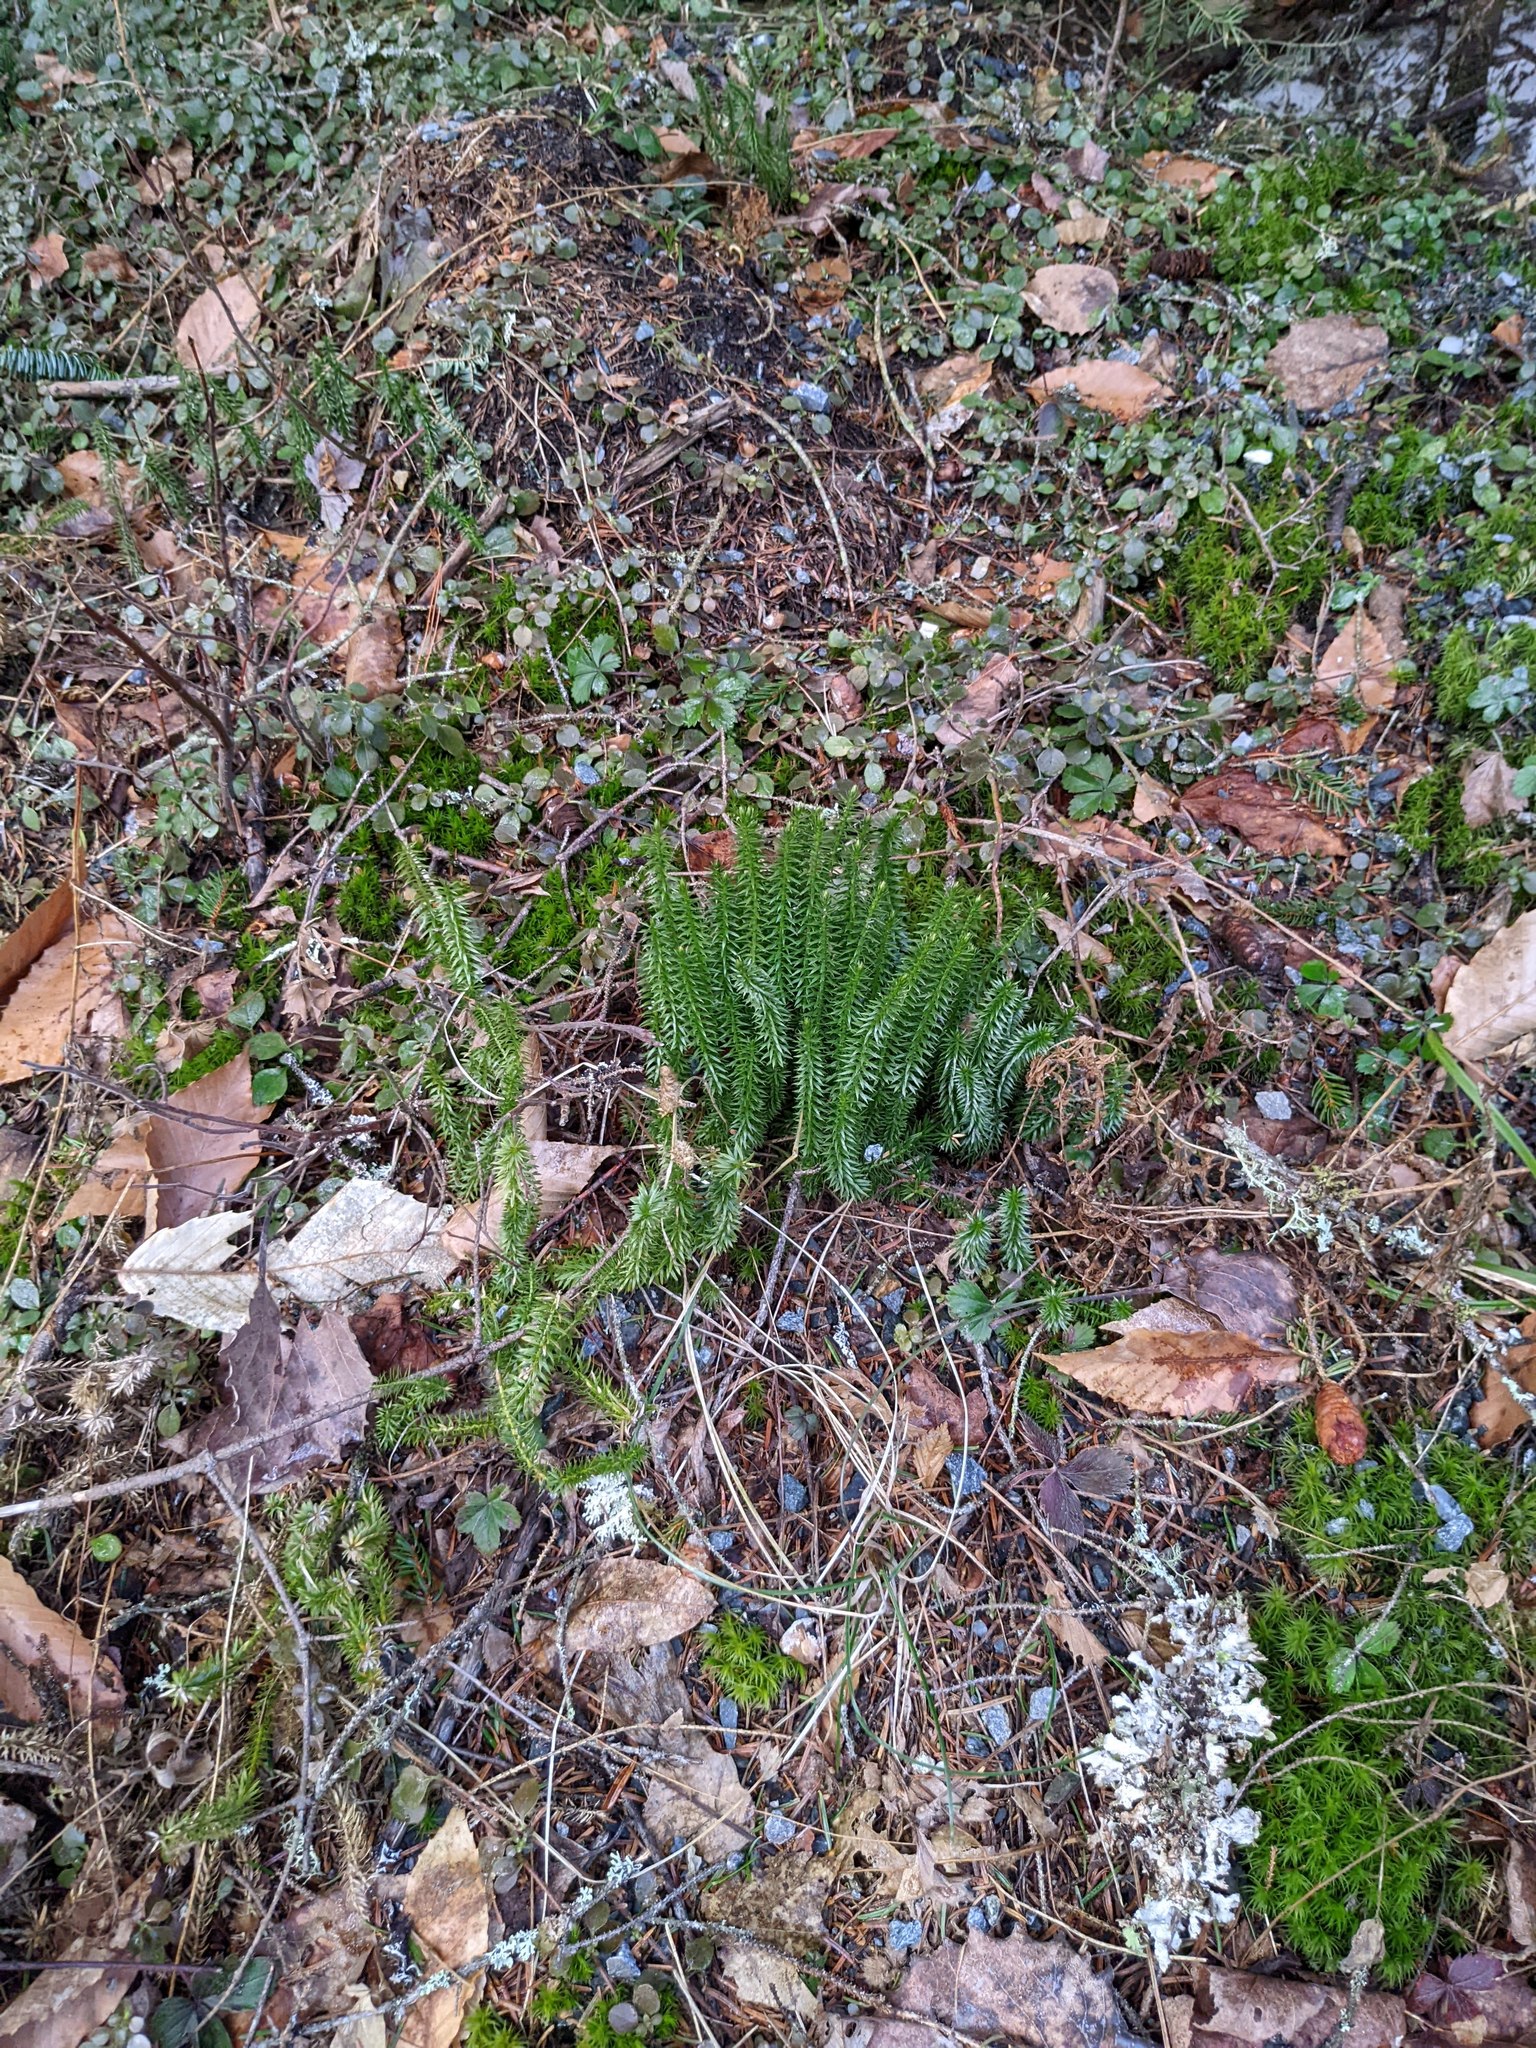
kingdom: Plantae
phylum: Tracheophyta
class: Lycopodiopsida
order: Lycopodiales
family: Lycopodiaceae
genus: Spinulum
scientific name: Spinulum annotinum
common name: Interrupted club-moss
